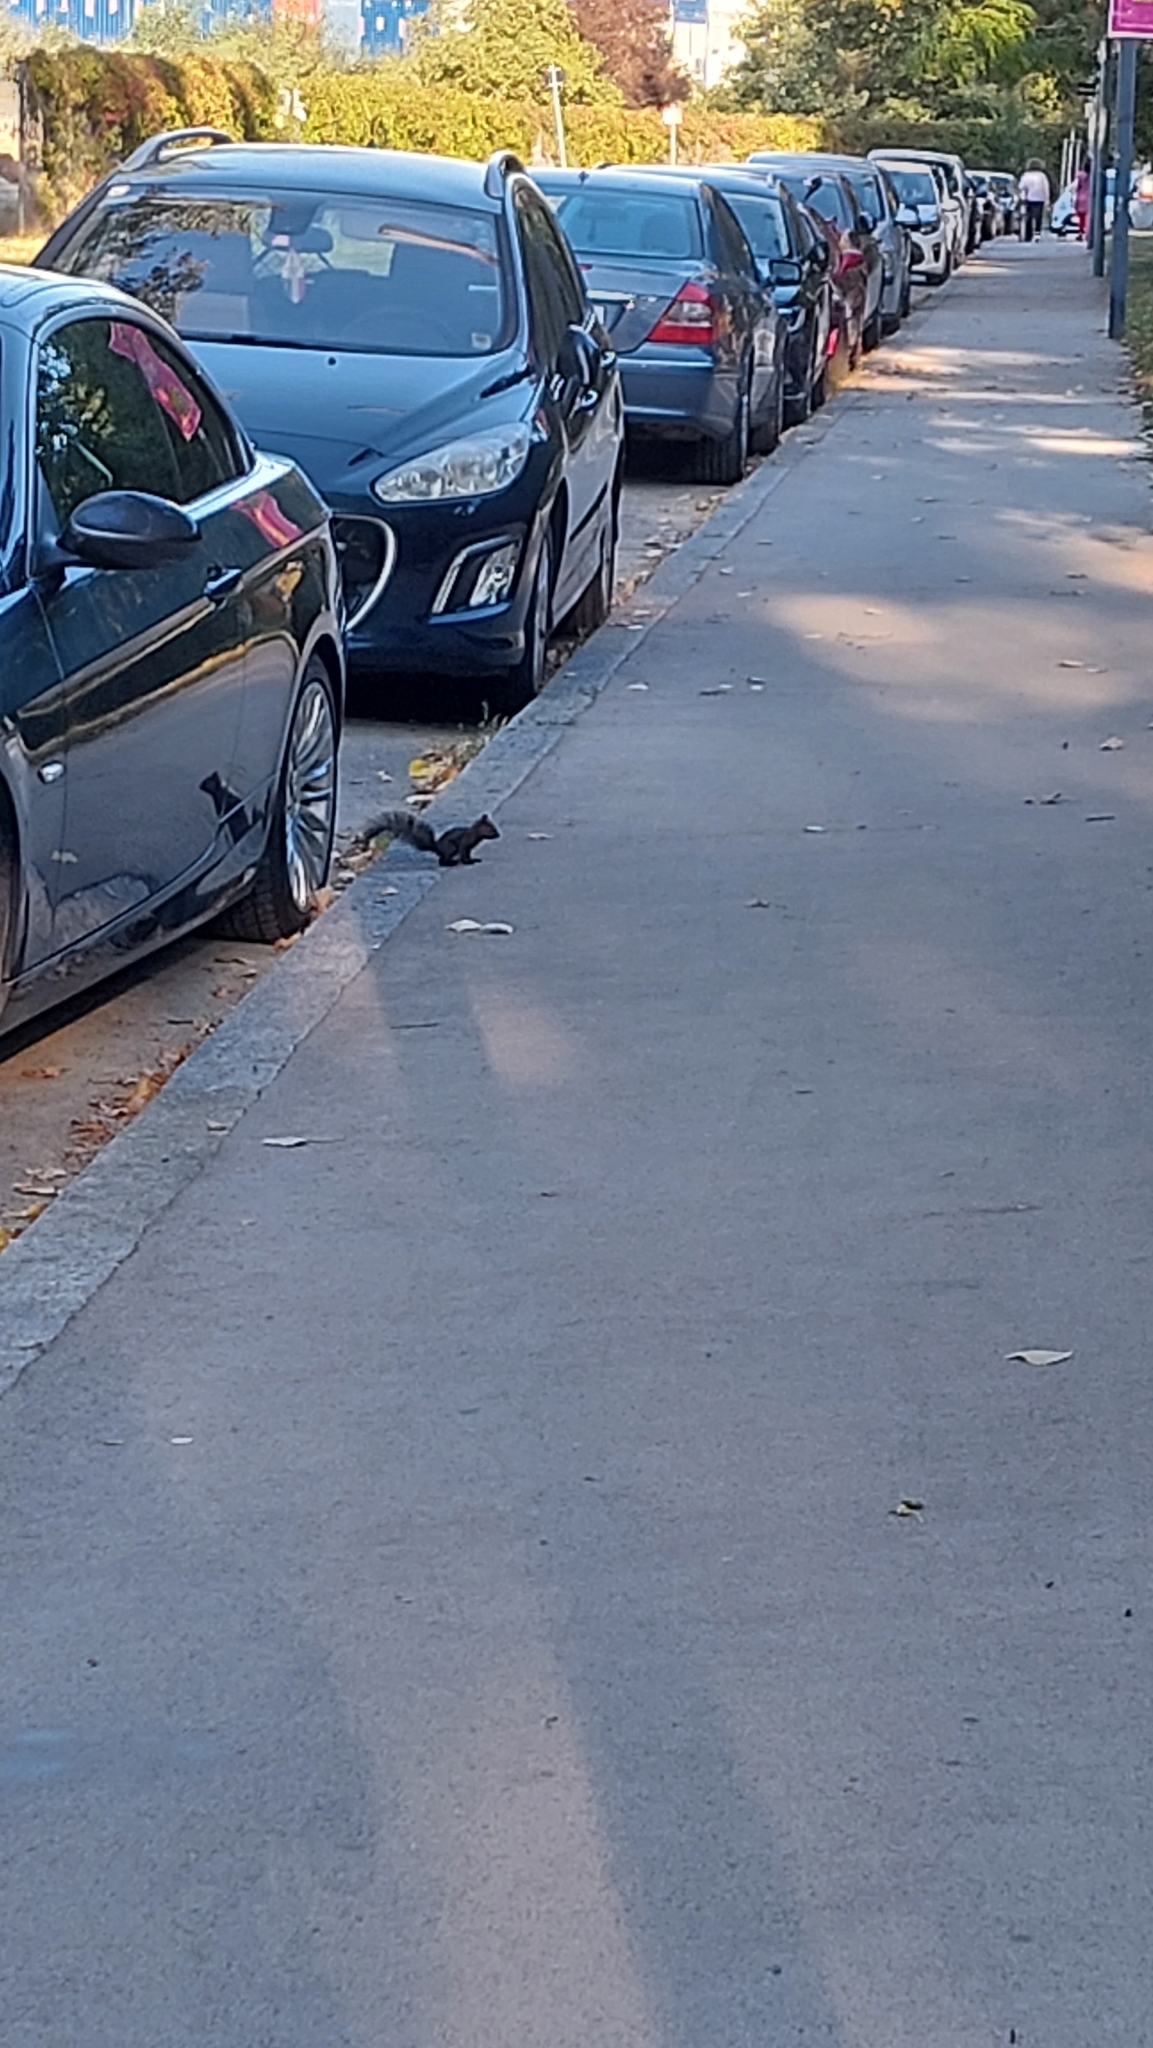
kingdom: Animalia
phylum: Chordata
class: Mammalia
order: Rodentia
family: Sciuridae
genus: Sciurus
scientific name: Sciurus vulgaris
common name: Eurasian red squirrel
